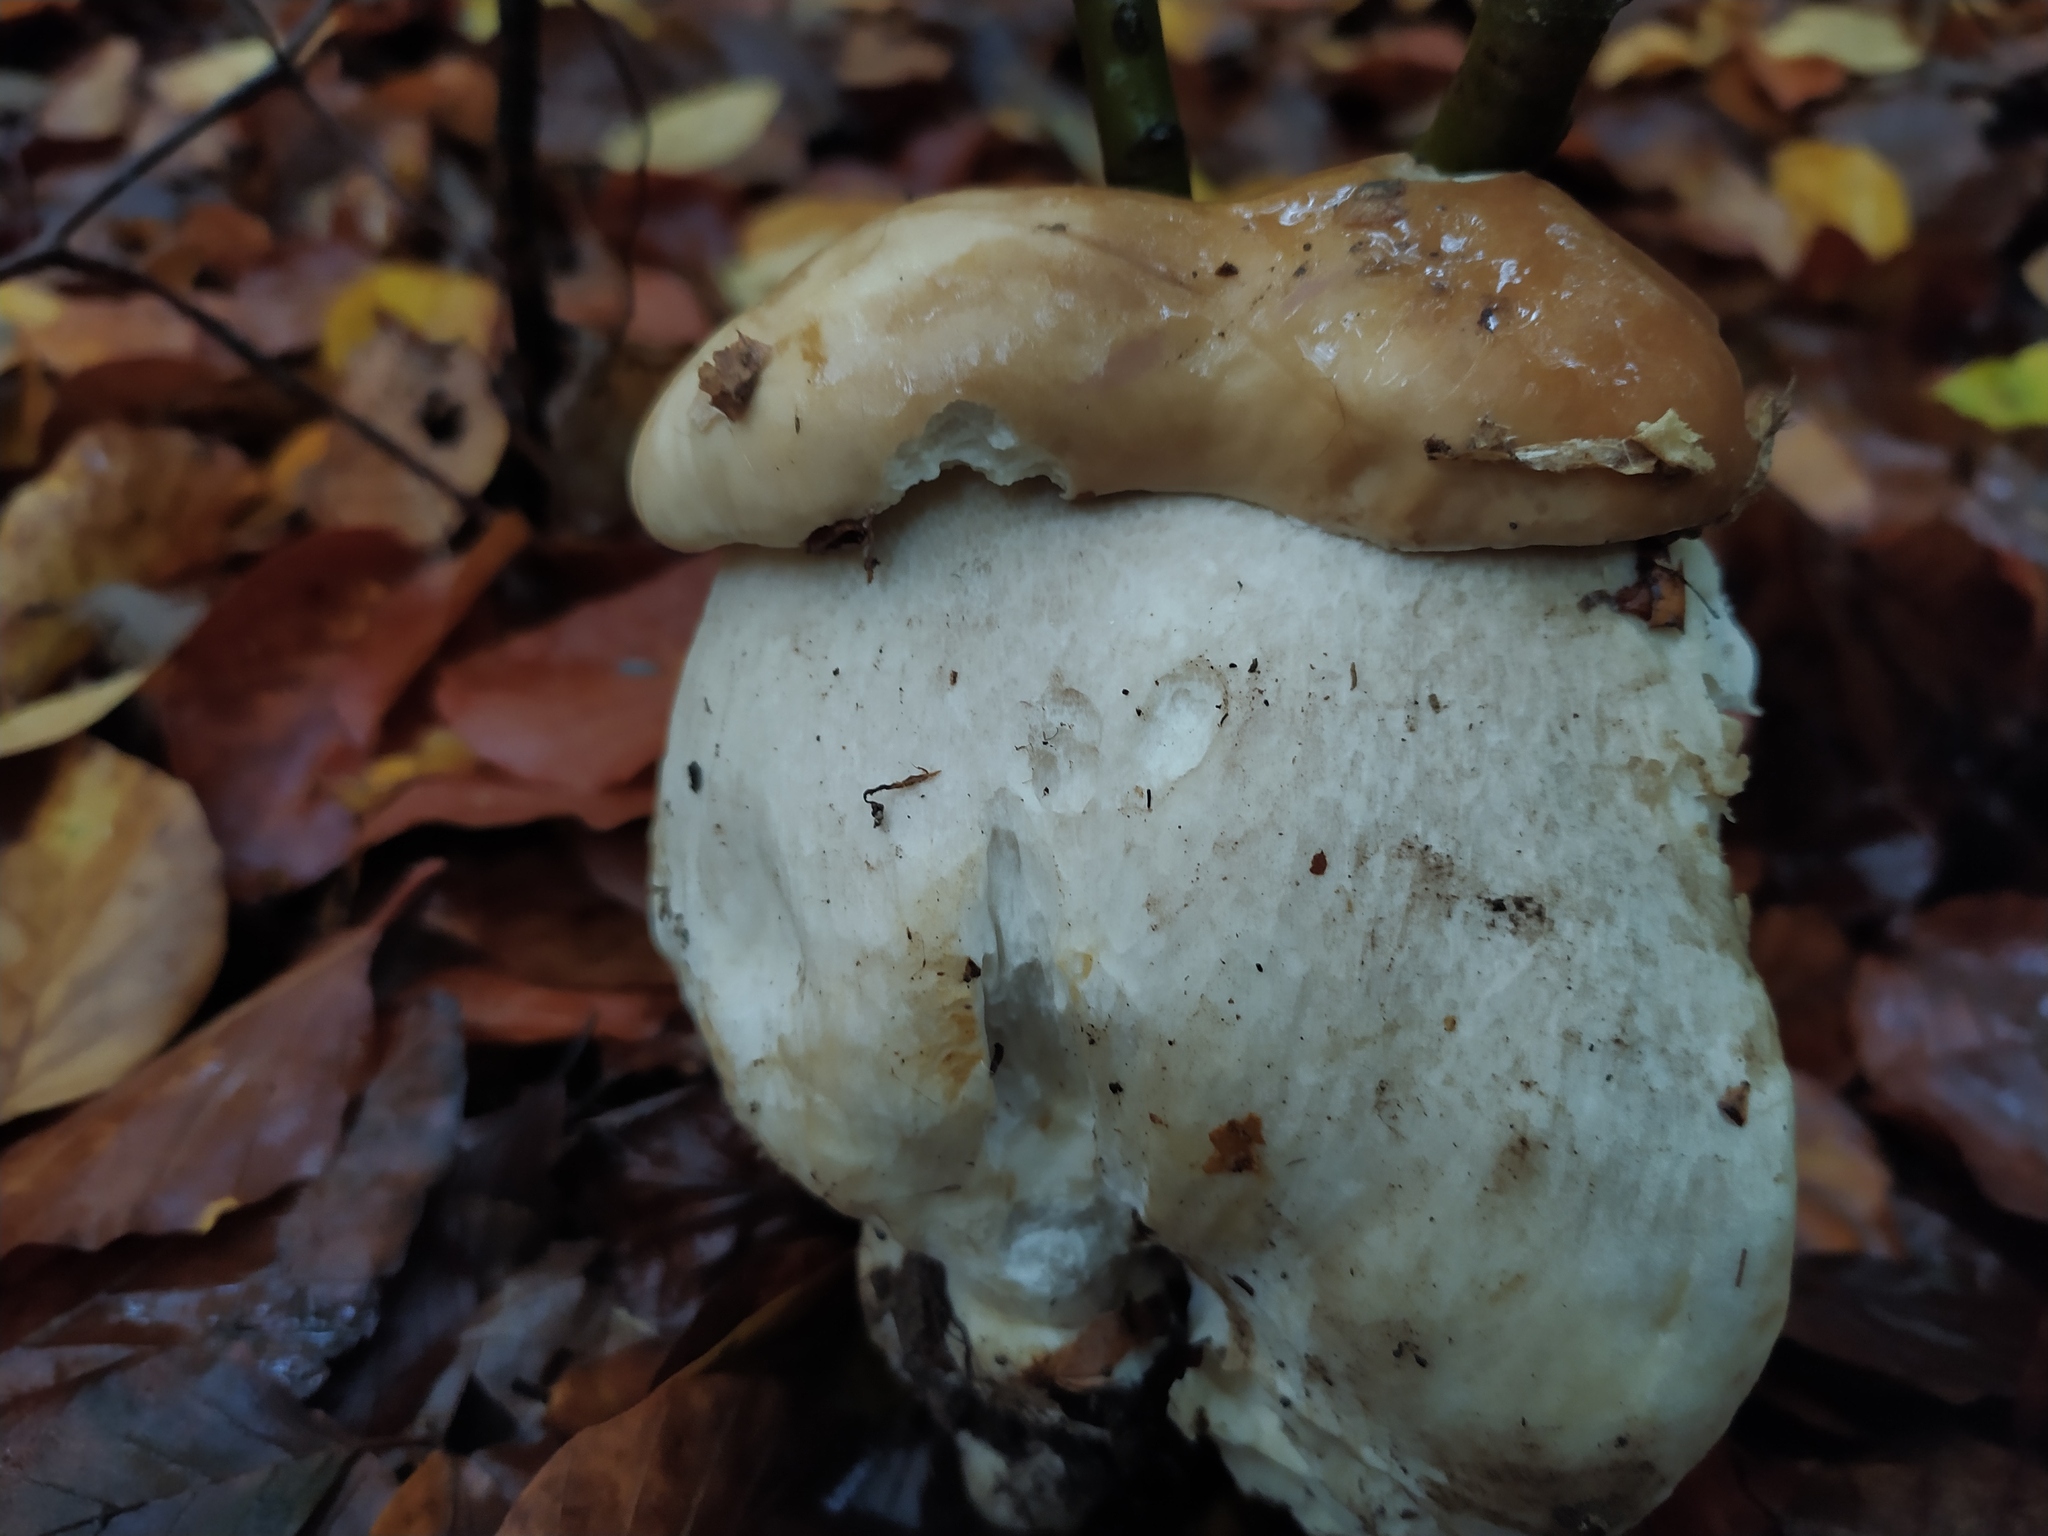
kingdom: Fungi
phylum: Basidiomycota
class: Agaricomycetes
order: Boletales
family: Boletaceae
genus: Boletus
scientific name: Boletus edulis
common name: Cep
